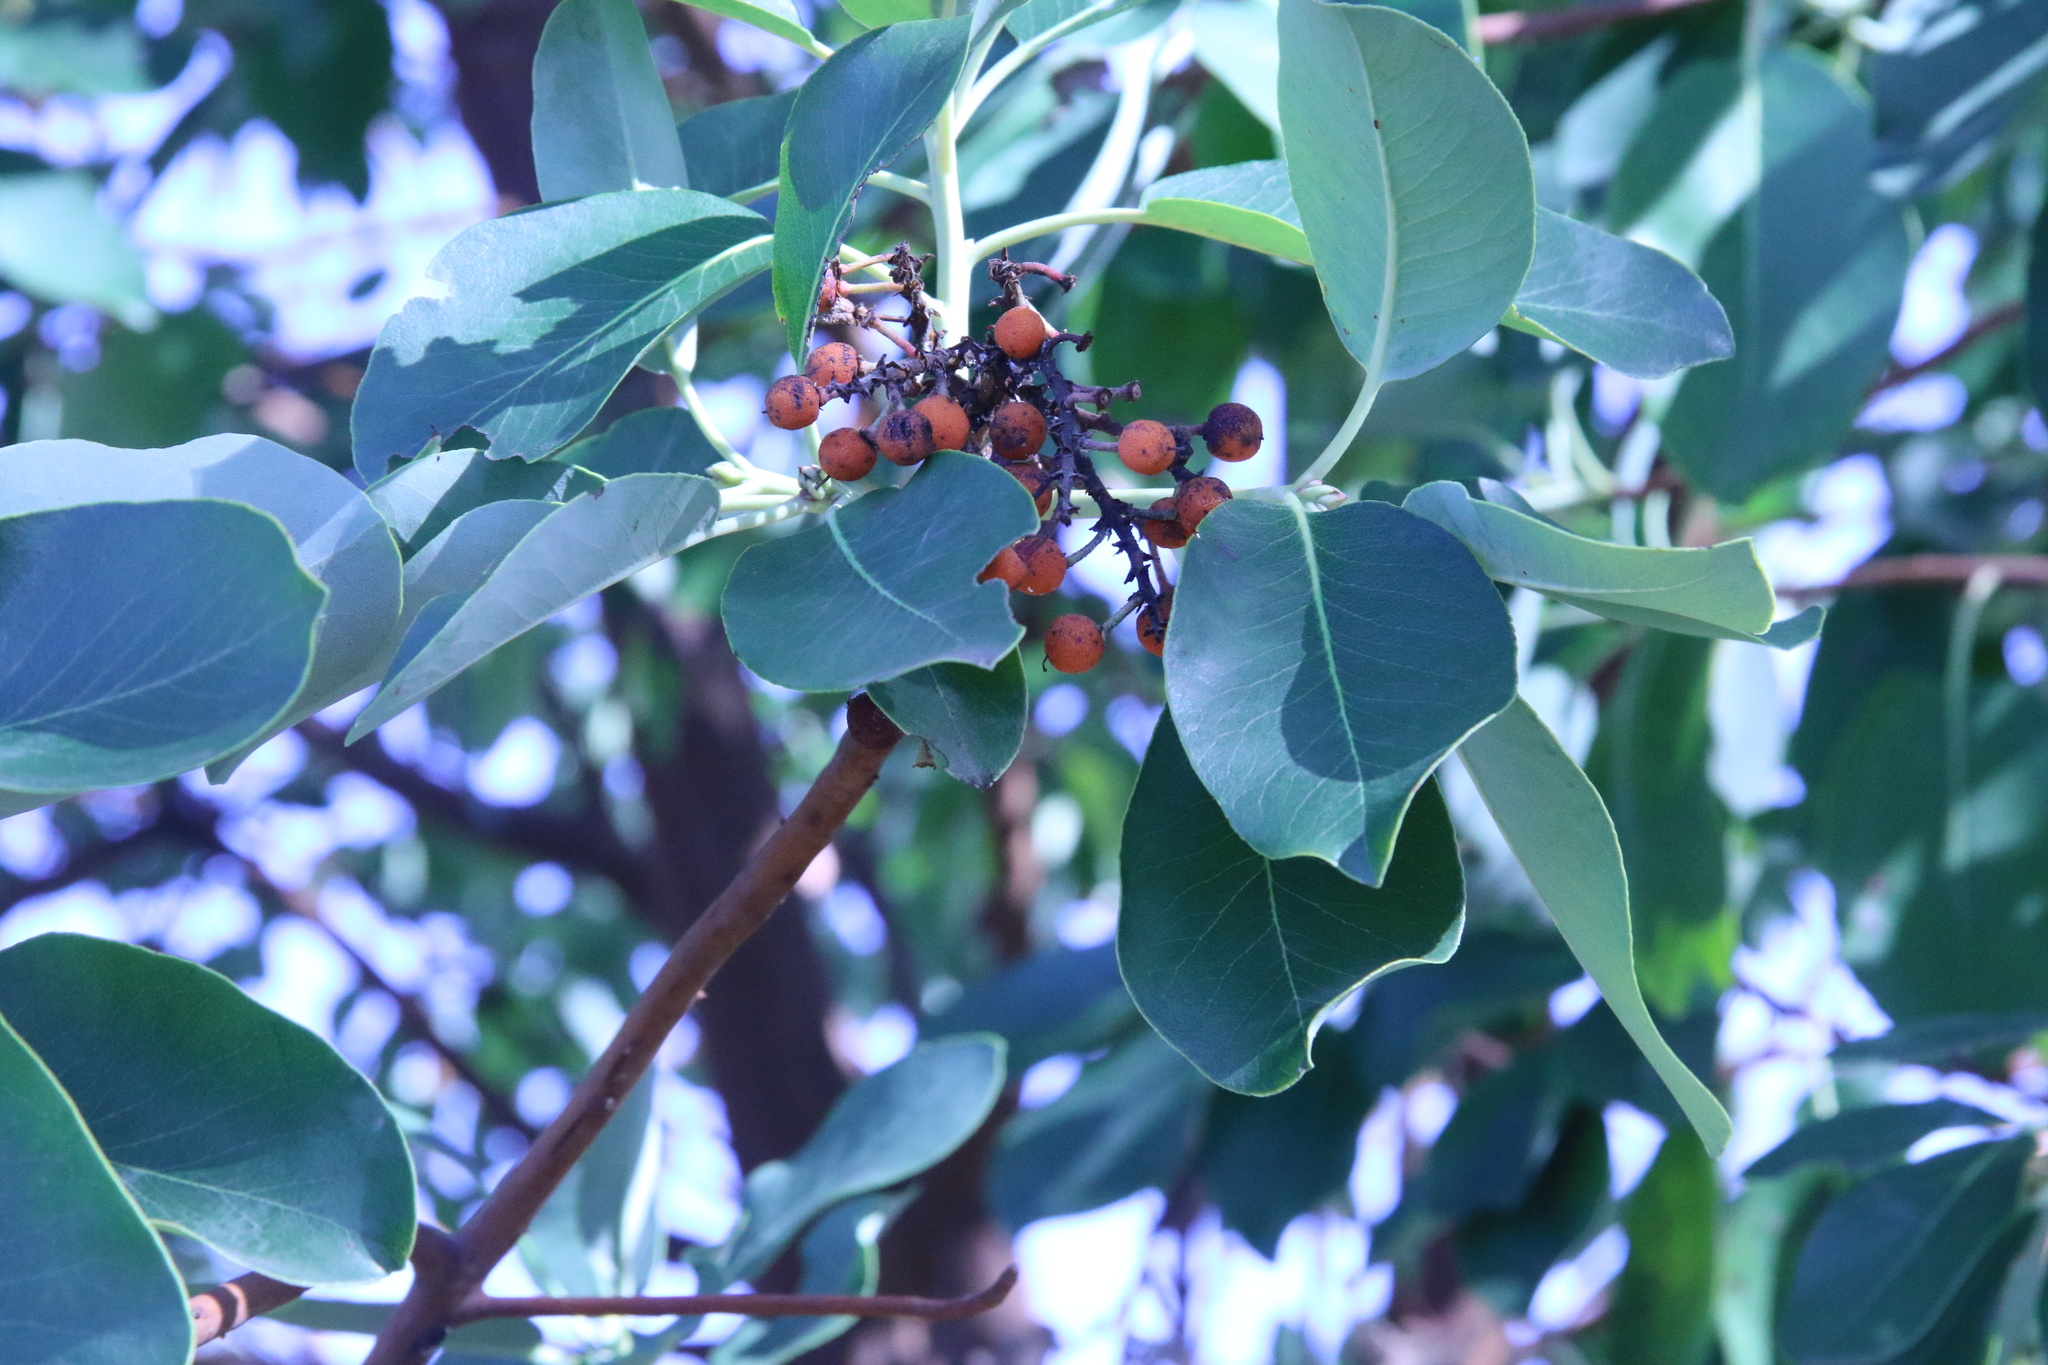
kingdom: Plantae
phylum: Tracheophyta
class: Magnoliopsida
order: Ericales
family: Ericaceae
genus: Arbutus
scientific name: Arbutus menziesii
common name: Pacific madrone
